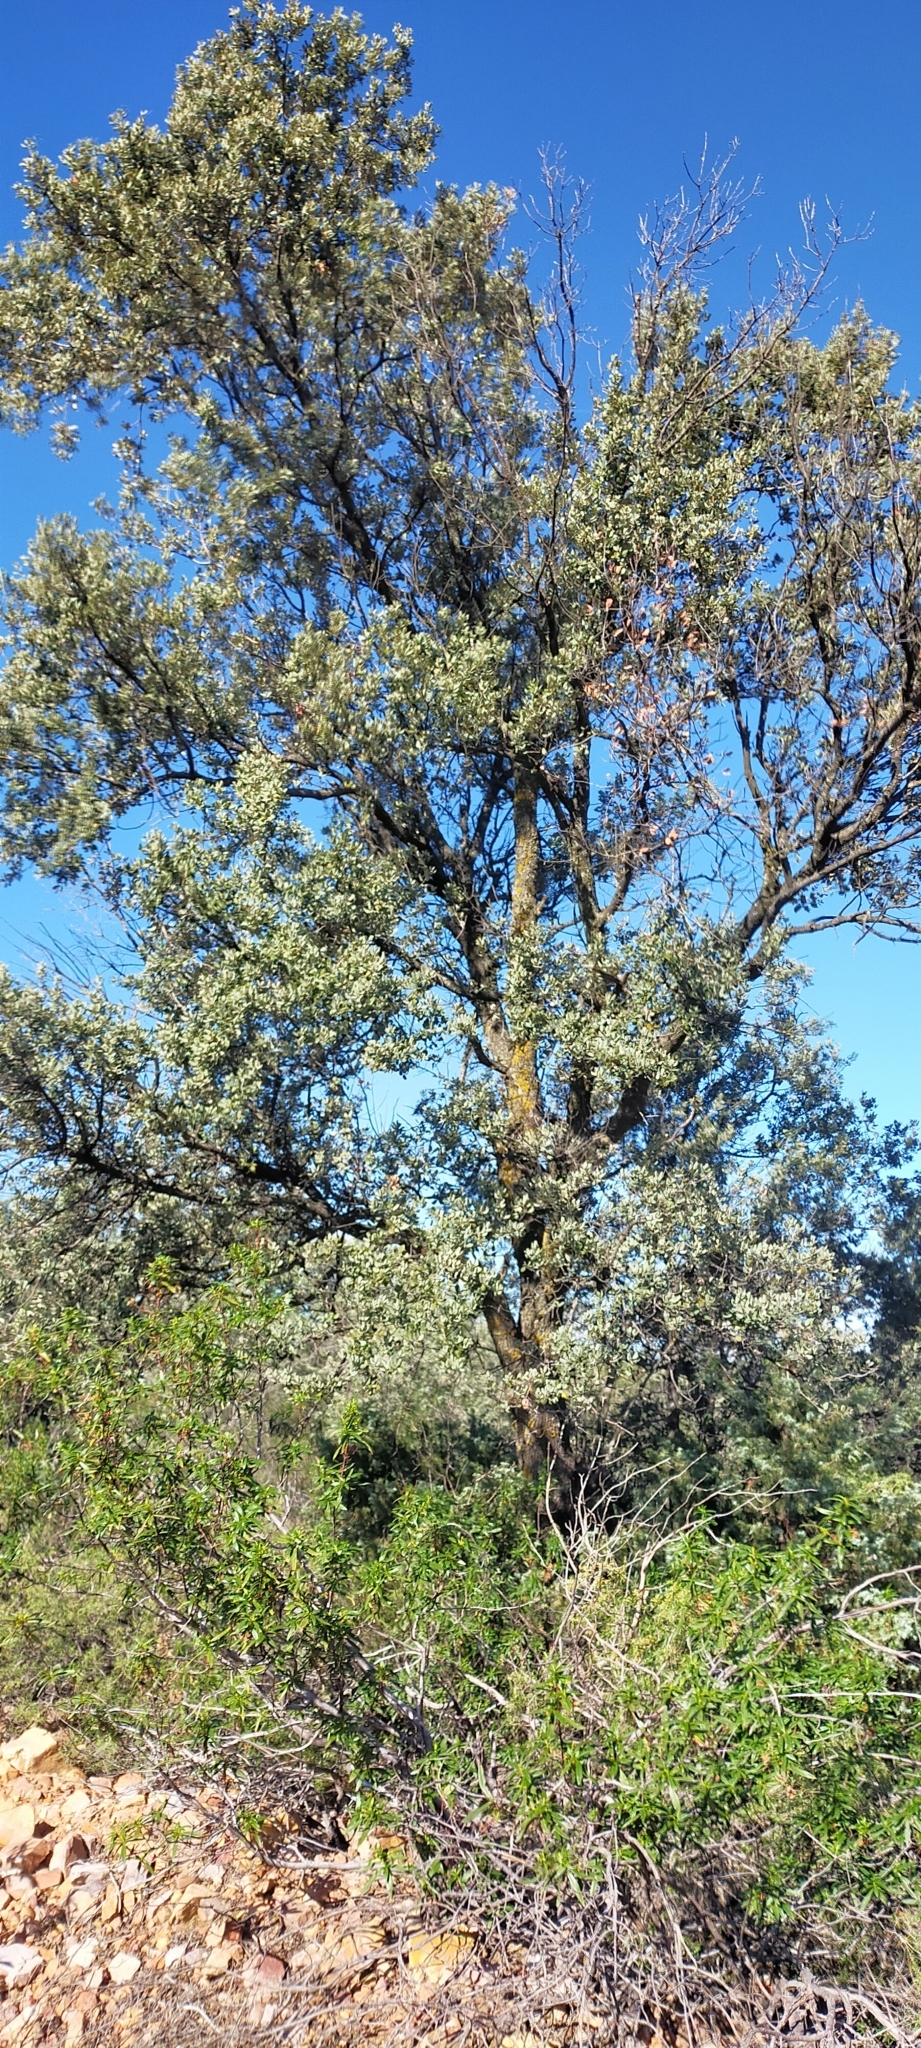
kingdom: Plantae
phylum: Tracheophyta
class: Magnoliopsida
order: Fagales
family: Fagaceae
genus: Quercus
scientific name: Quercus rotundifolia
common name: Holm oak
